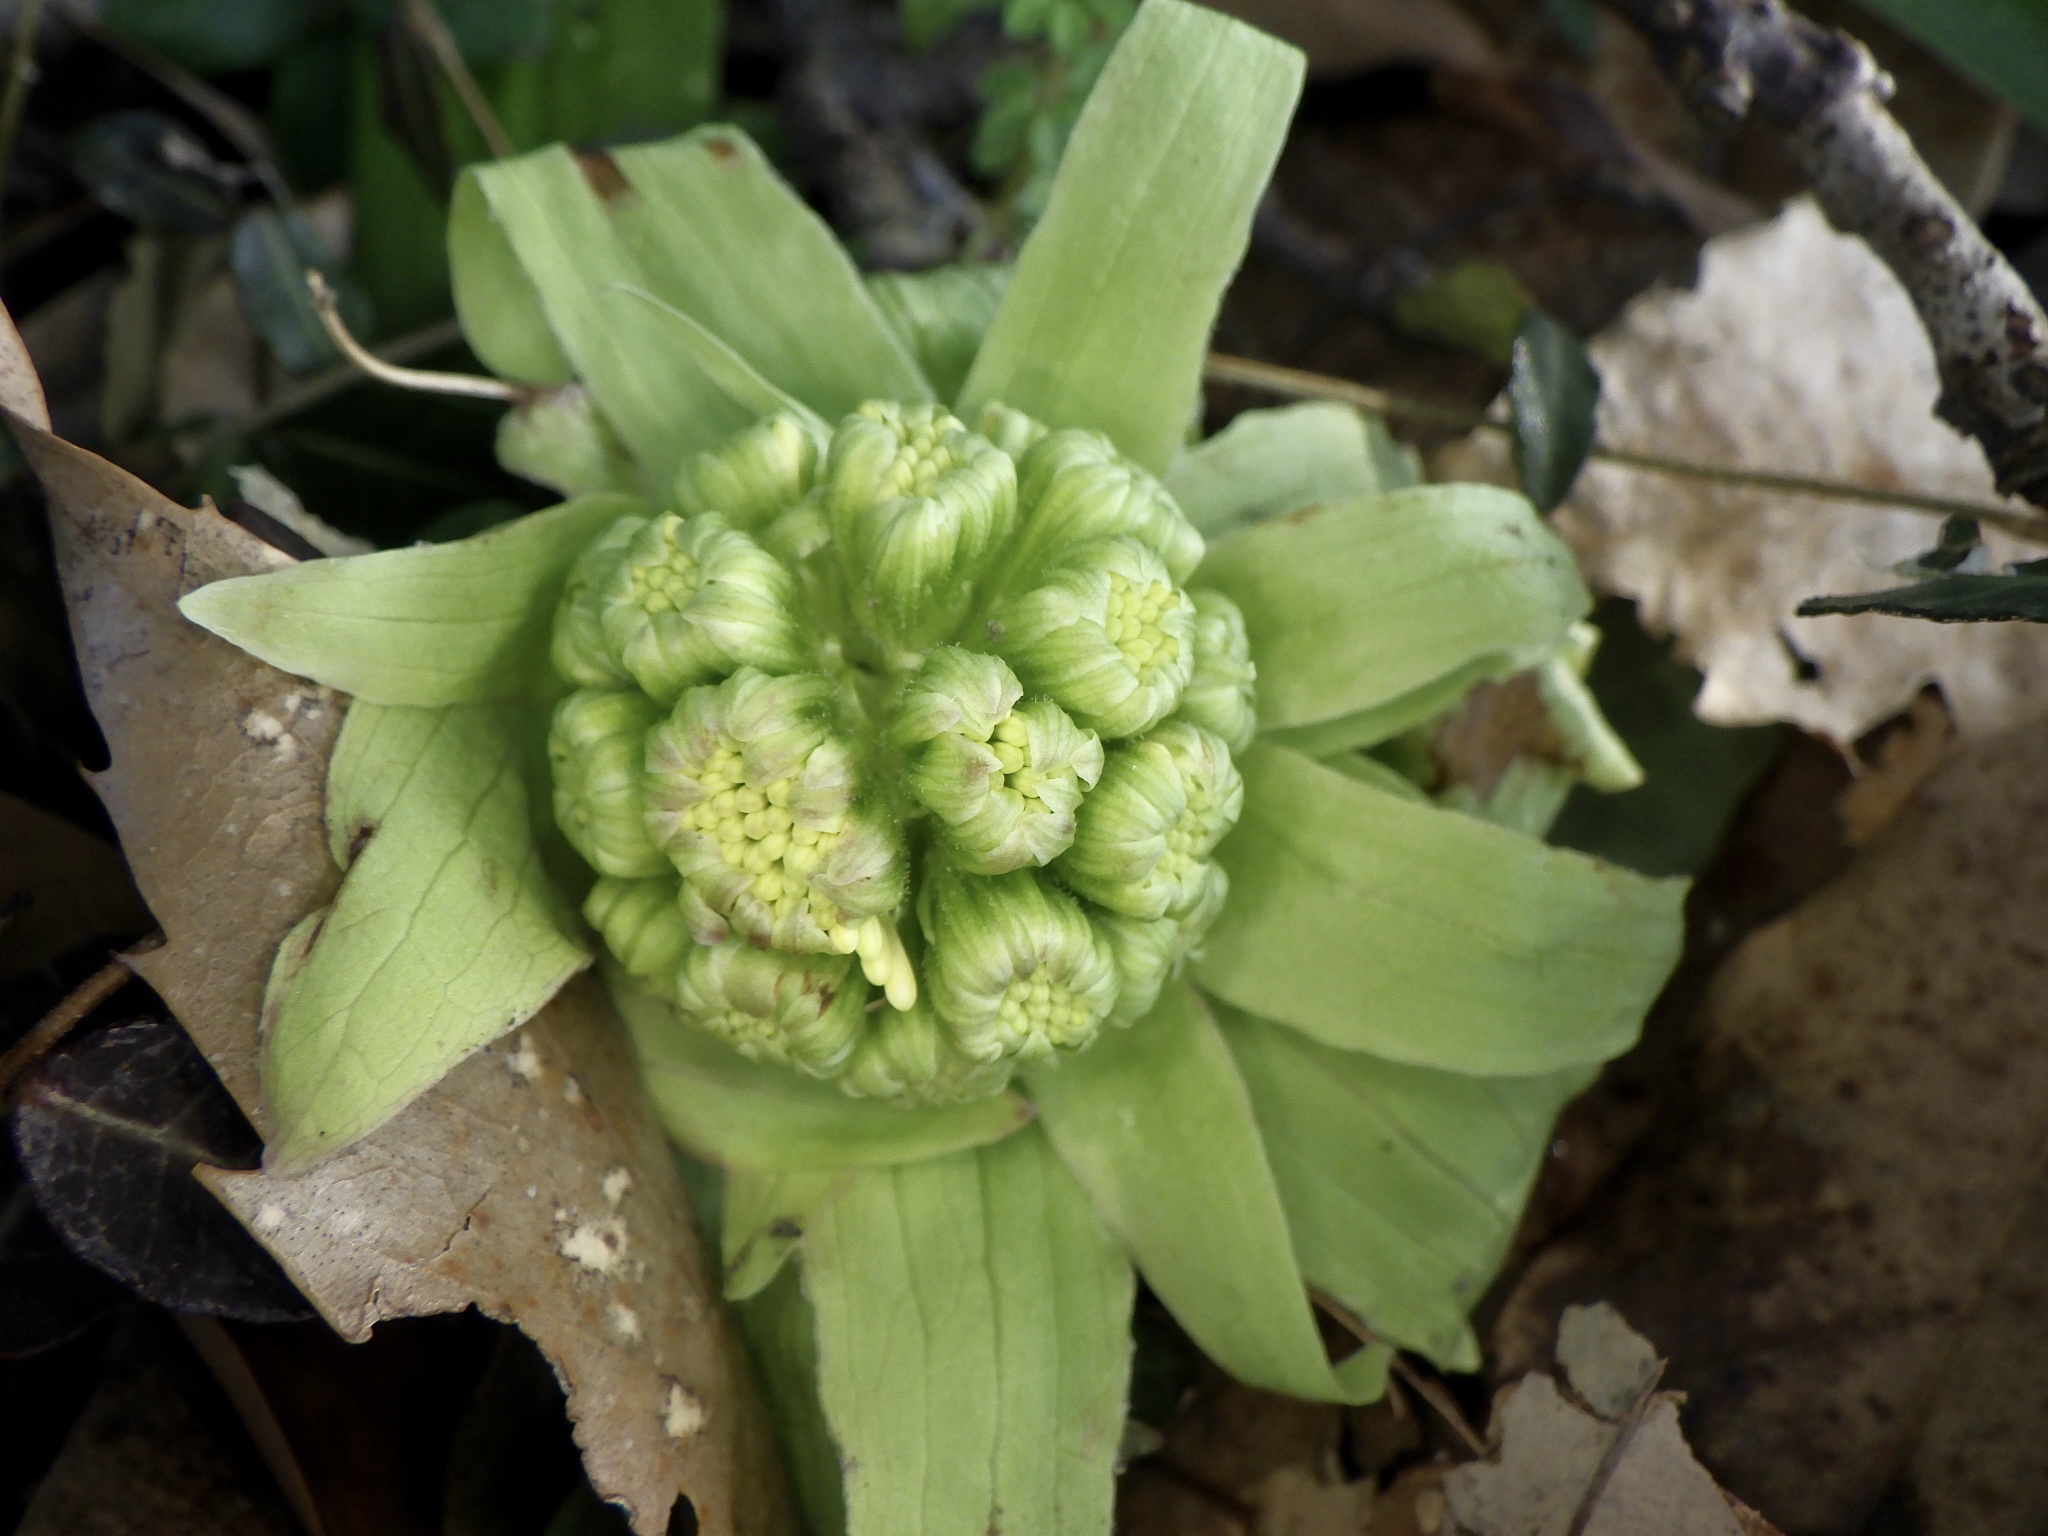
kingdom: Plantae
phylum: Tracheophyta
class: Magnoliopsida
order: Asterales
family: Asteraceae
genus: Petasites
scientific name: Petasites japonicus
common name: Giant butterbur
